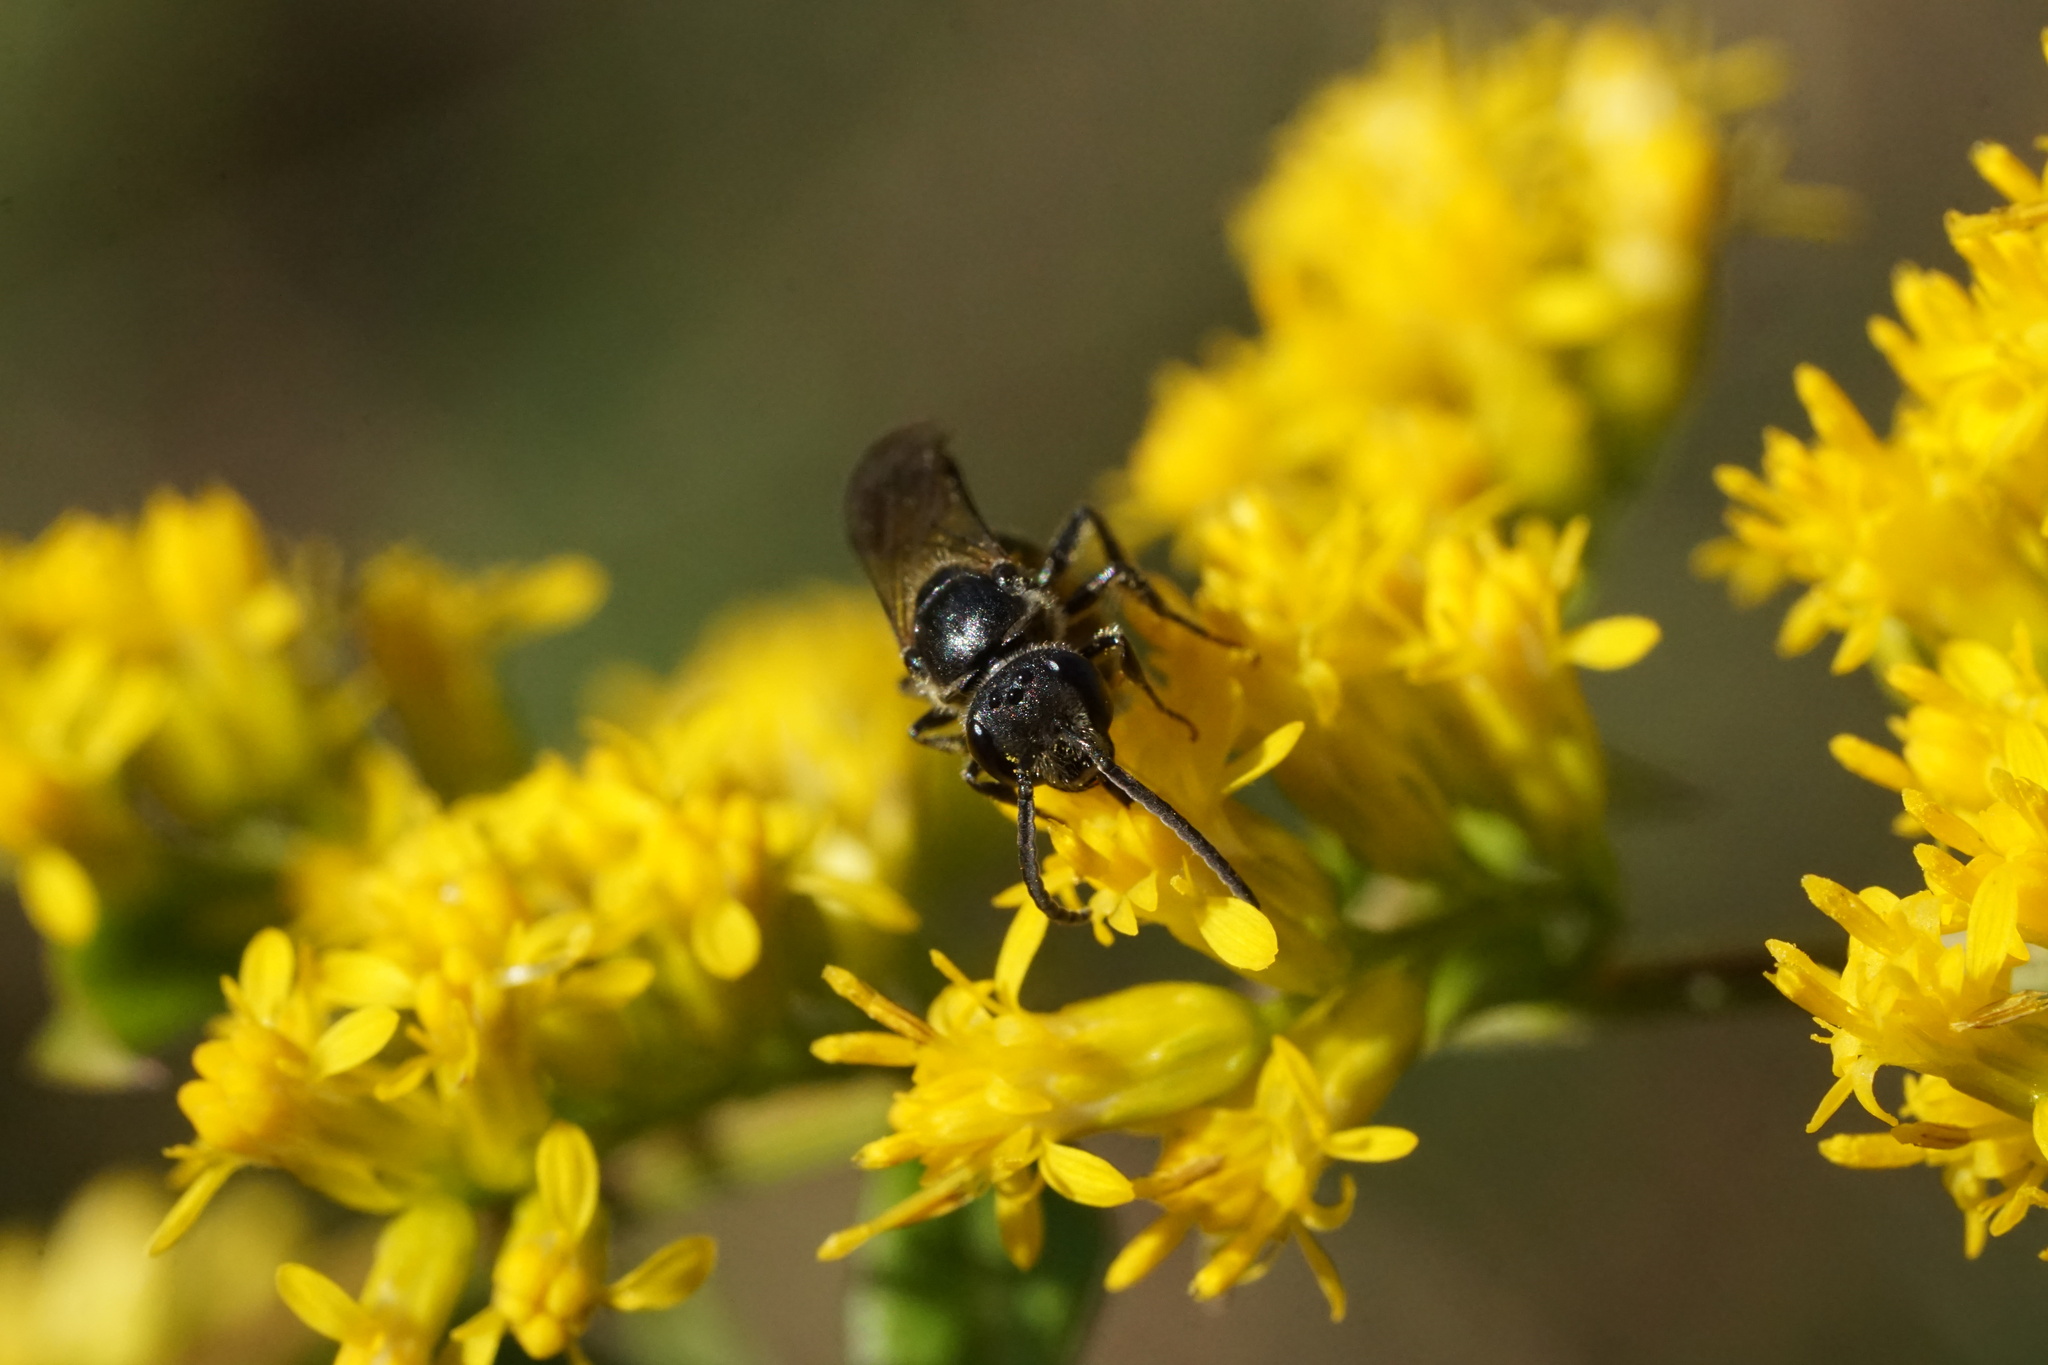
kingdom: Animalia
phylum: Arthropoda
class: Insecta
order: Hymenoptera
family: Halictidae
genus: Lasioglossum
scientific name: Lasioglossum fuscipenne
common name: Brown-winged sweat bee
